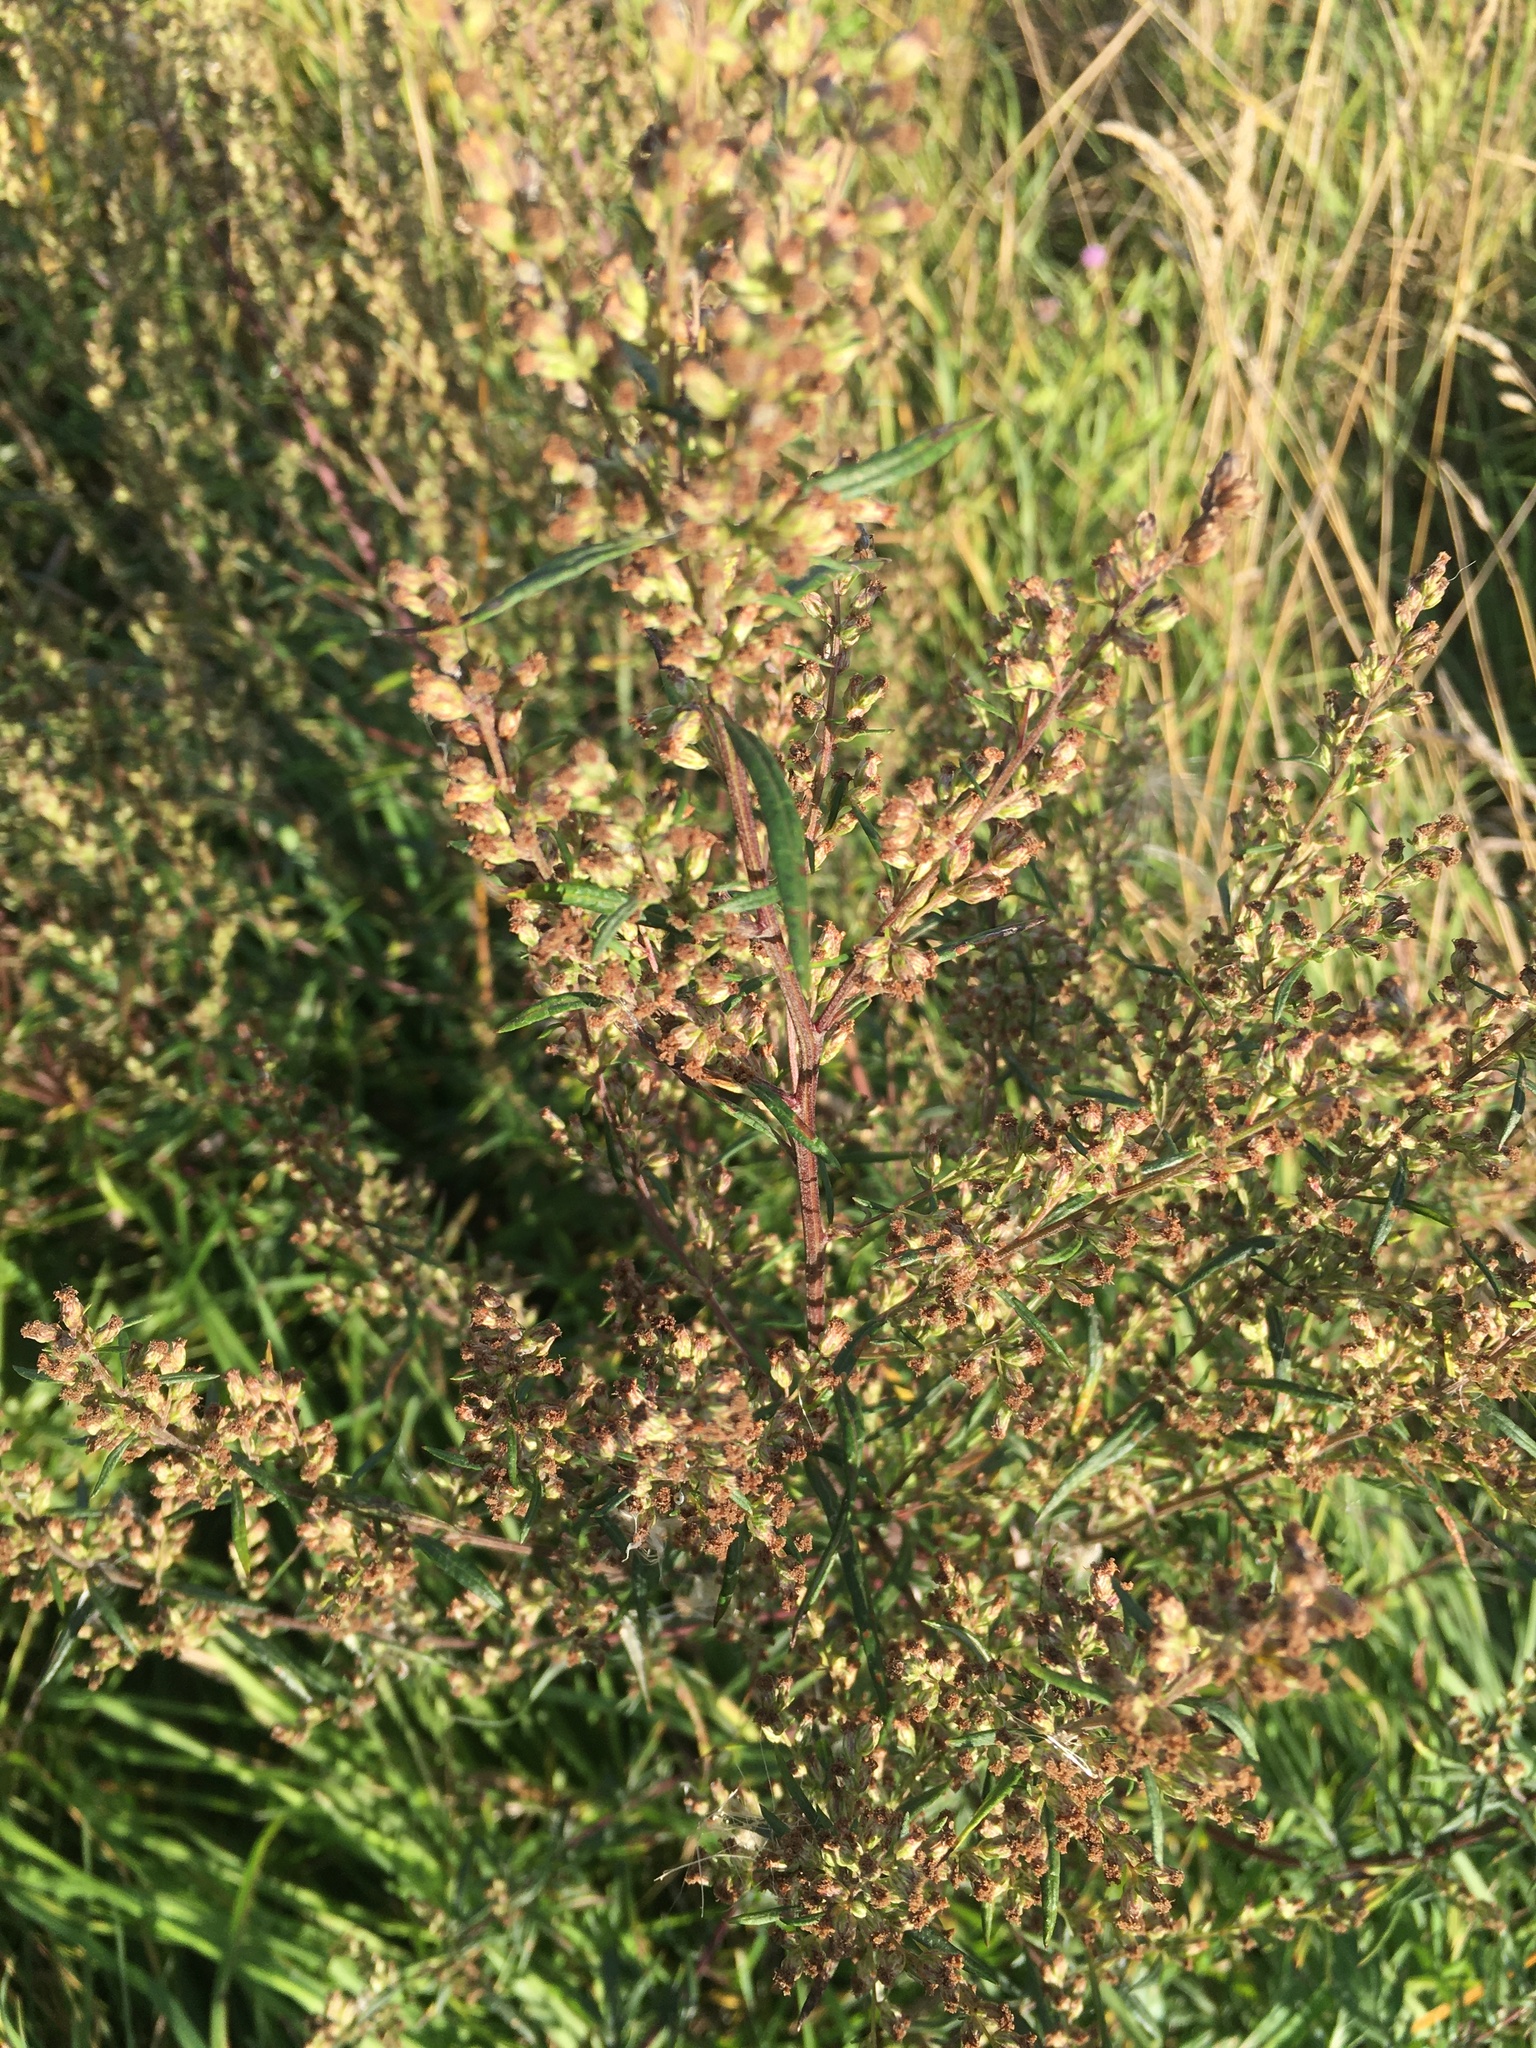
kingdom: Plantae
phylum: Tracheophyta
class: Magnoliopsida
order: Asterales
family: Asteraceae
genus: Artemisia
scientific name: Artemisia vulgaris
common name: Mugwort
